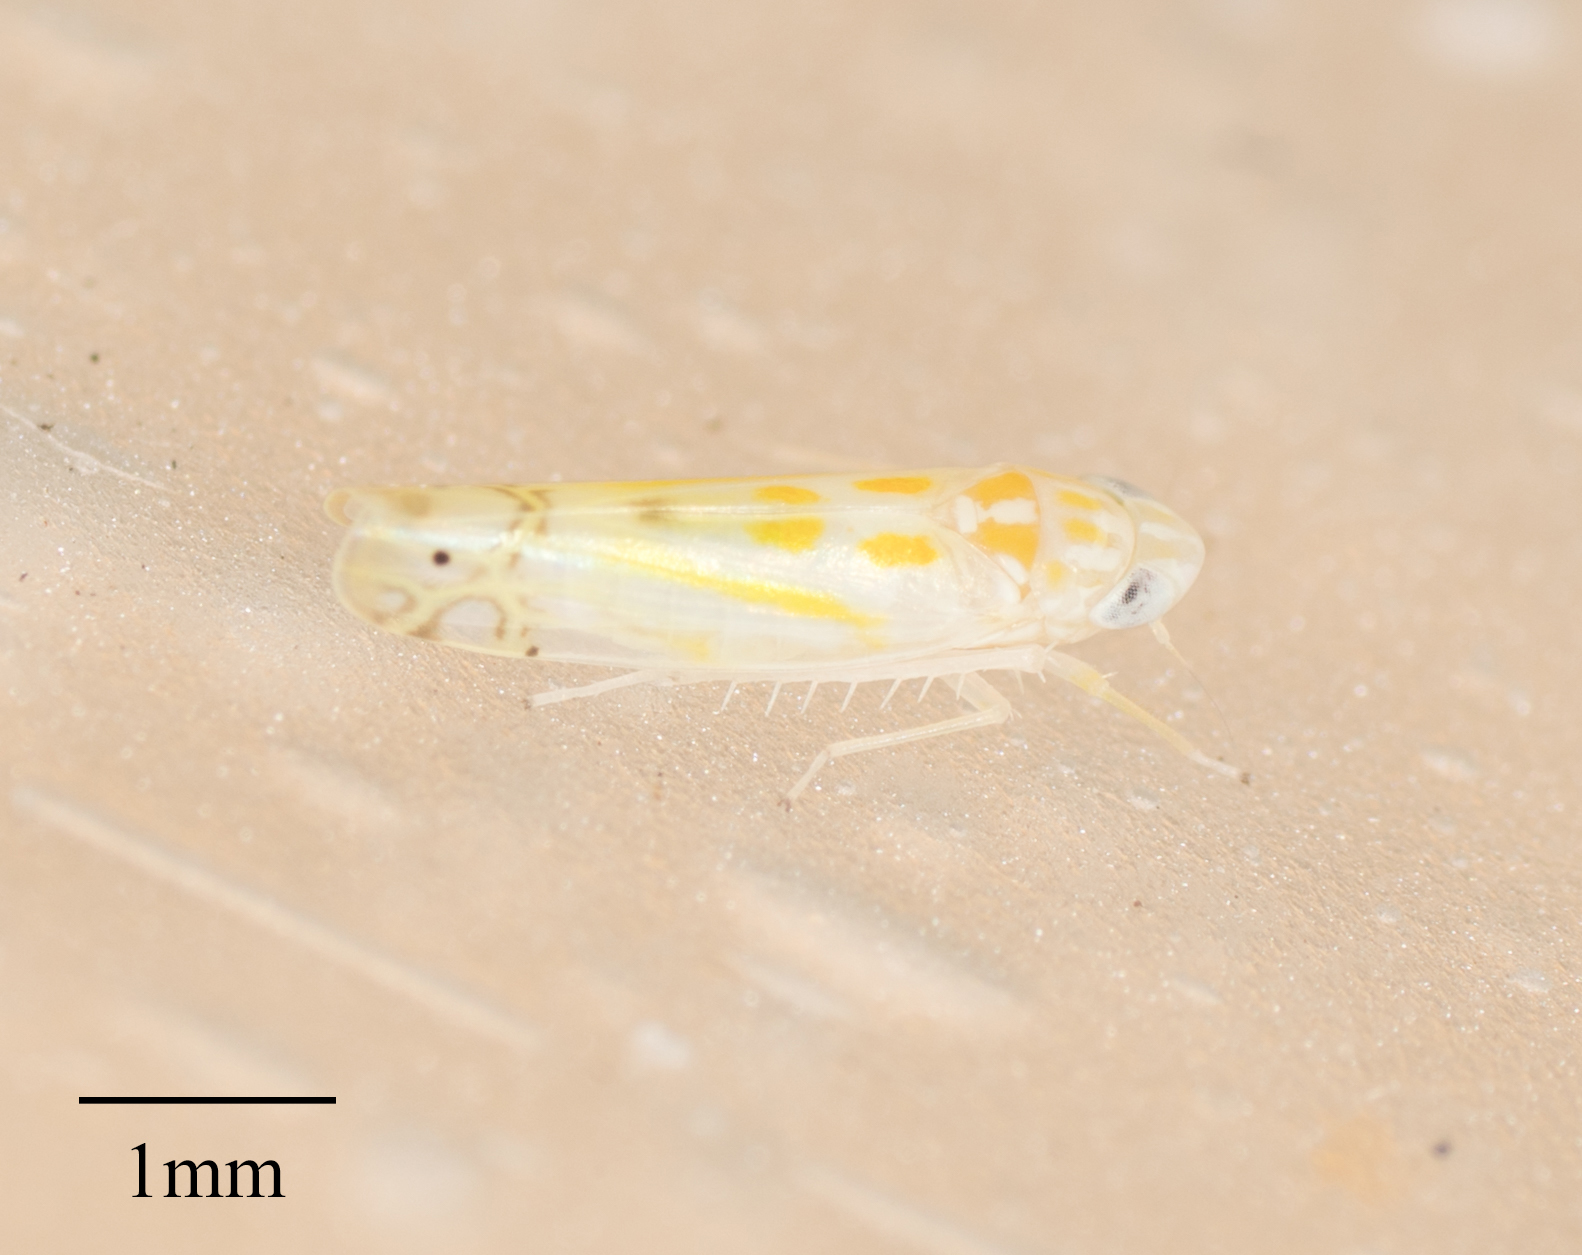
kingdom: Animalia
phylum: Arthropoda
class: Insecta
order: Hemiptera
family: Cicadellidae
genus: Alconeura
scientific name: Alconeura quadrimaculata
